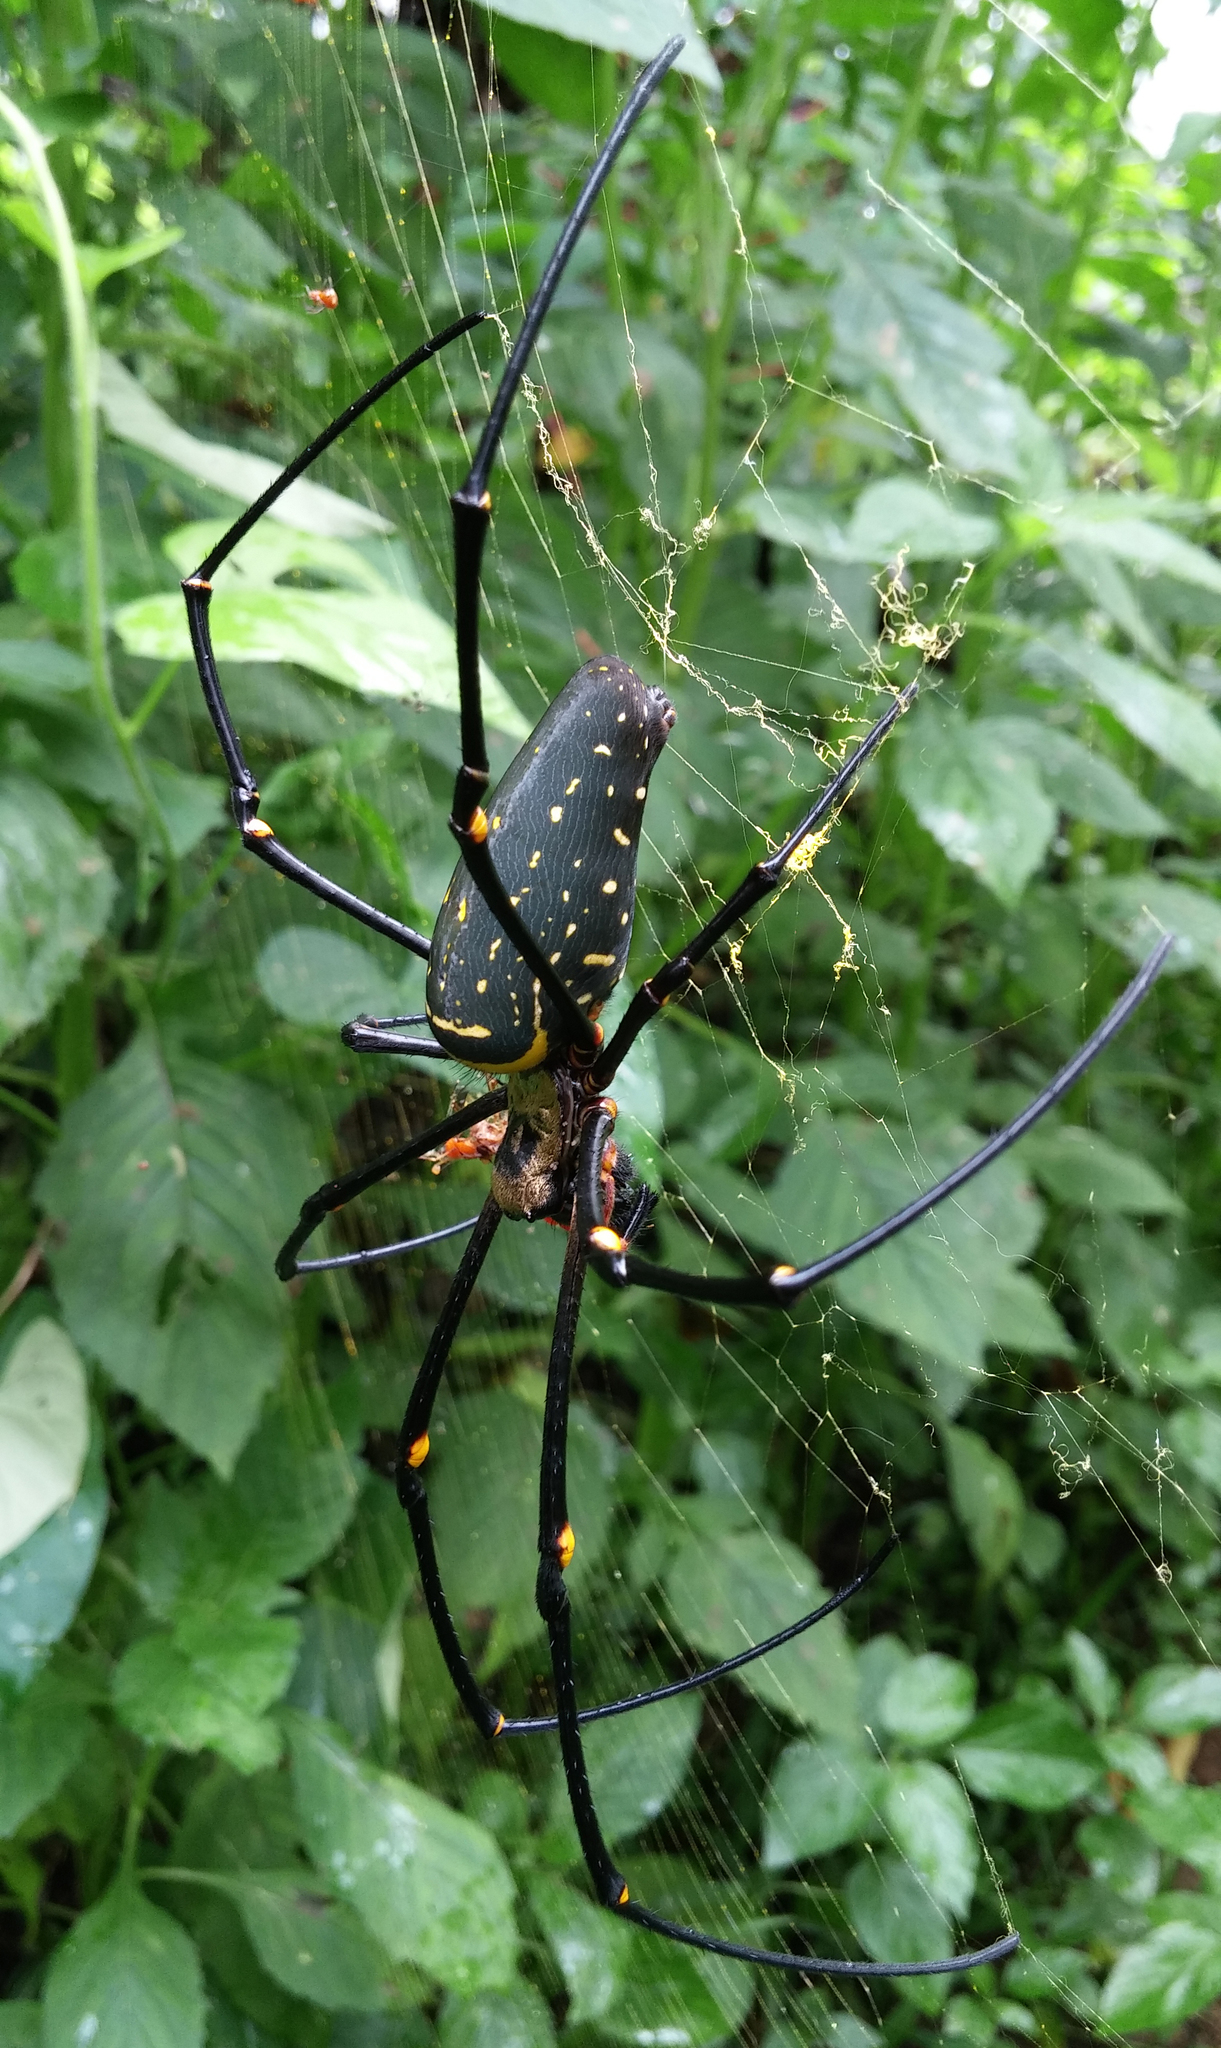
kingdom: Animalia
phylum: Arthropoda
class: Arachnida
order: Araneae
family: Araneidae
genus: Nephila
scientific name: Nephila pilipes
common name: Giant golden orb weaver
